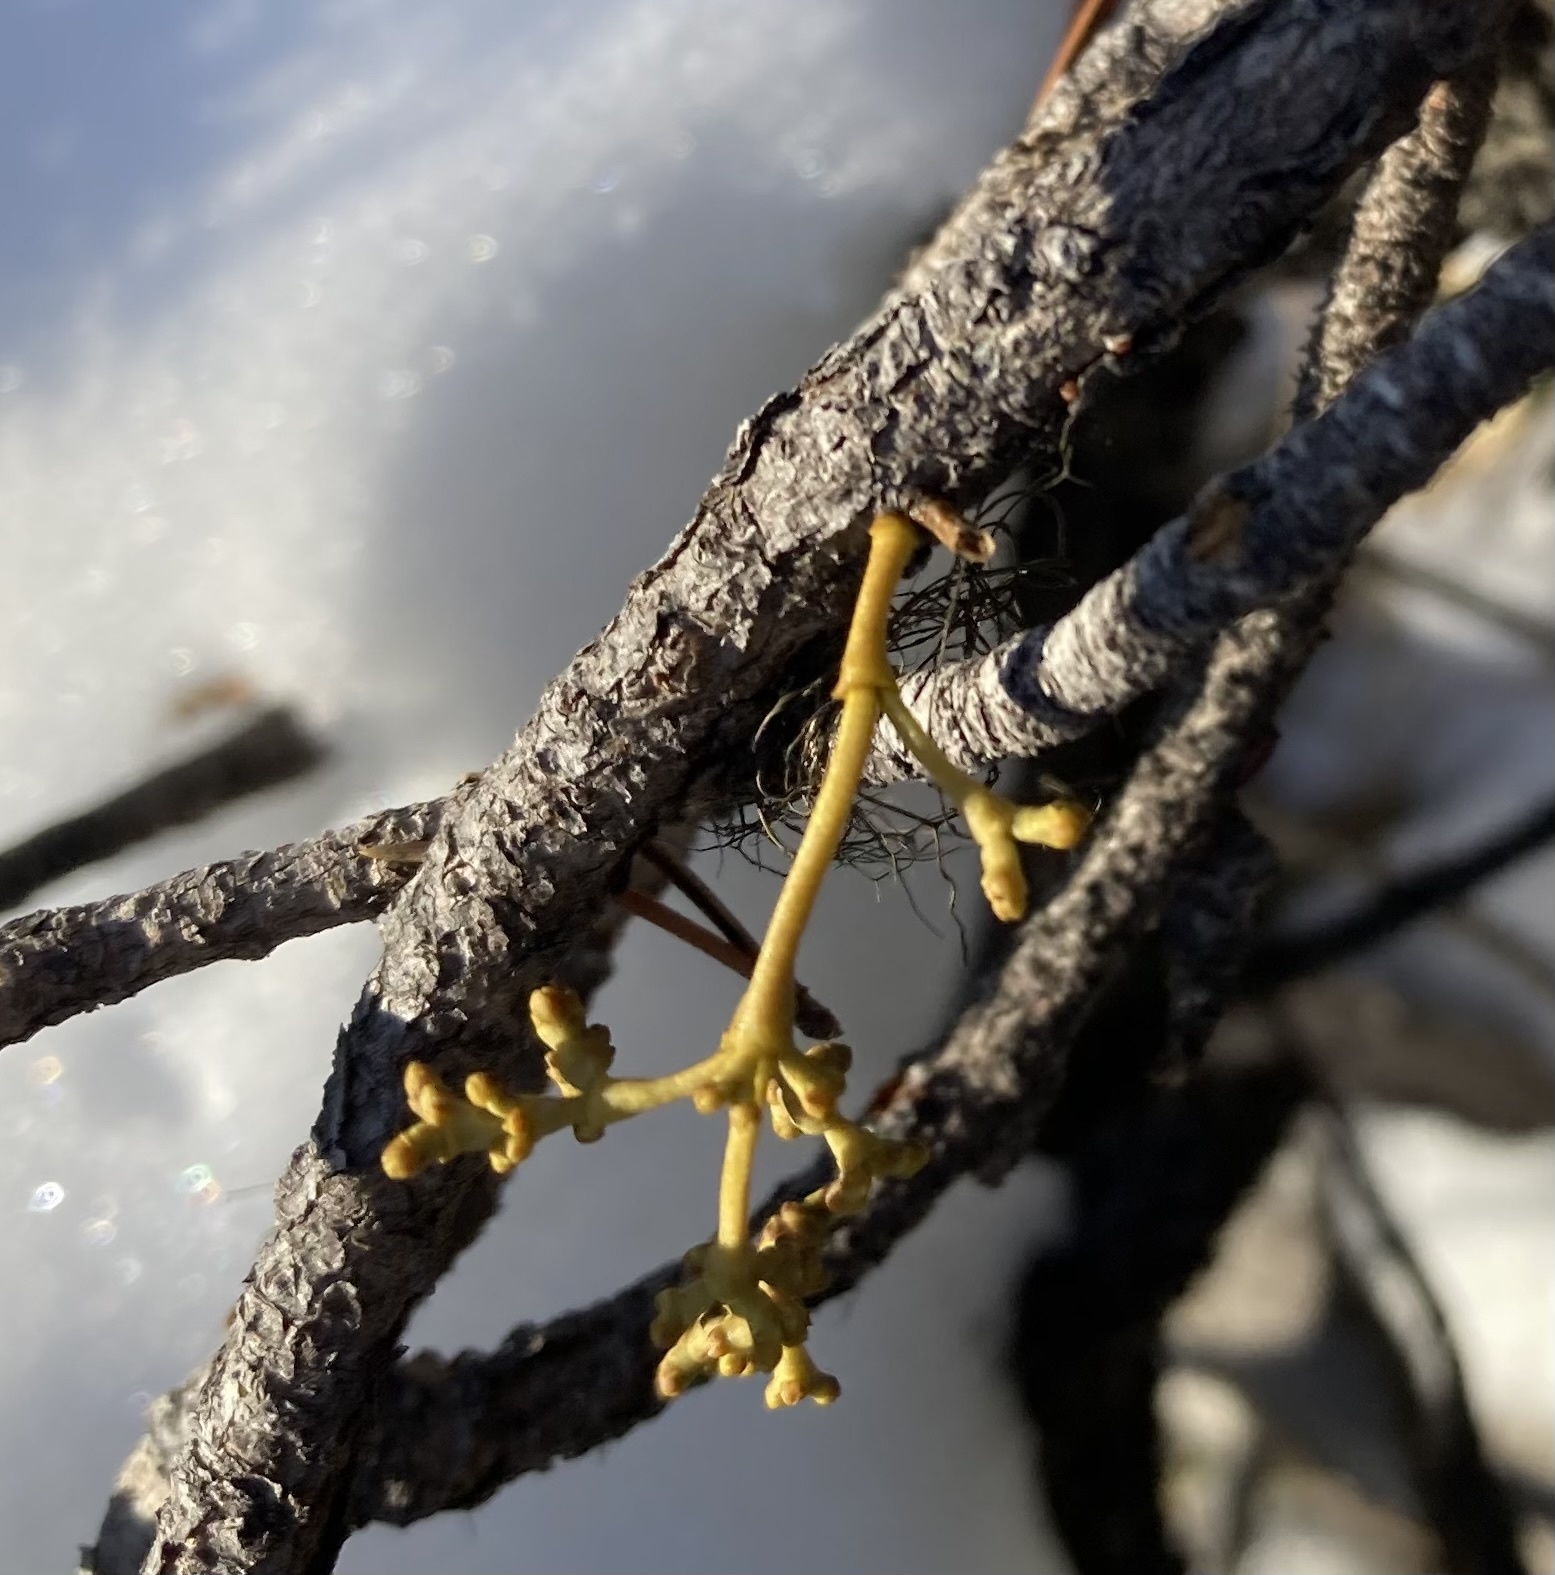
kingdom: Plantae
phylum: Tracheophyta
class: Magnoliopsida
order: Santalales
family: Viscaceae
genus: Arceuthobium
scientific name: Arceuthobium americanum
